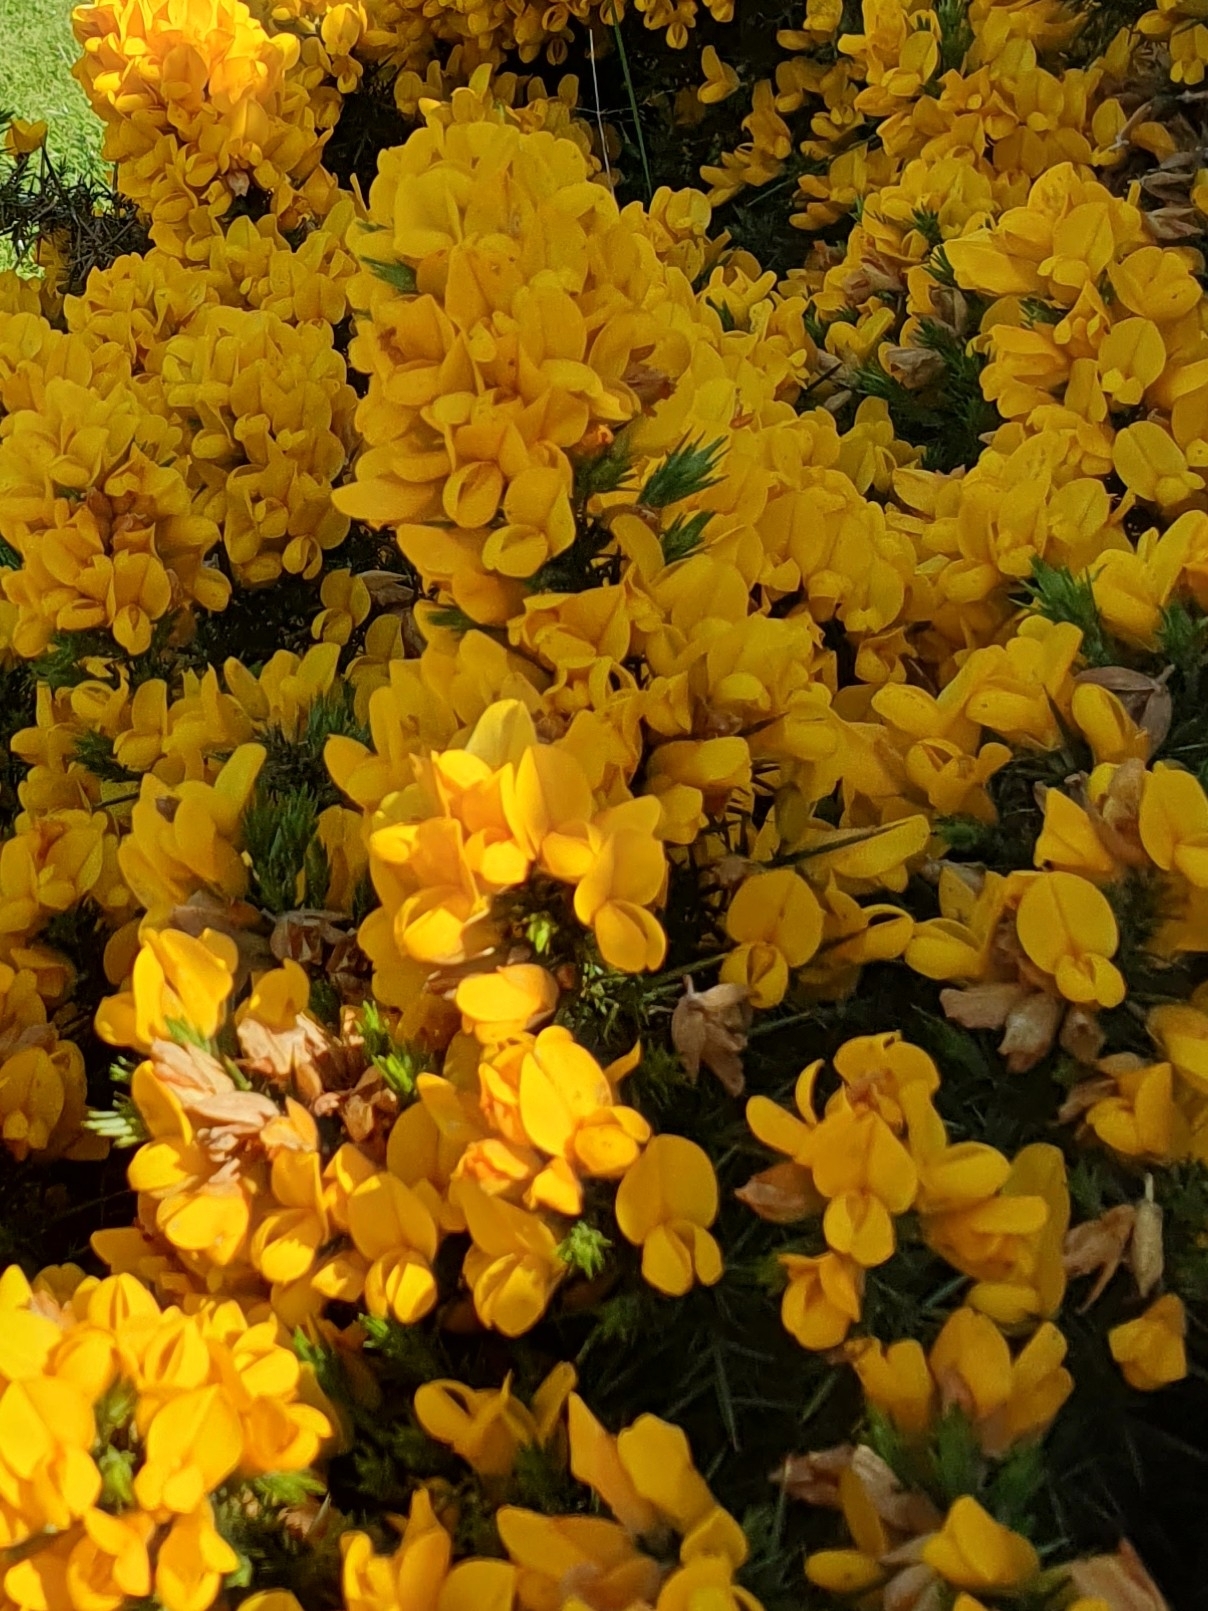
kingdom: Plantae
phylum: Tracheophyta
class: Magnoliopsida
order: Fabales
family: Fabaceae
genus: Ulex
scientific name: Ulex europaeus
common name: Common gorse
